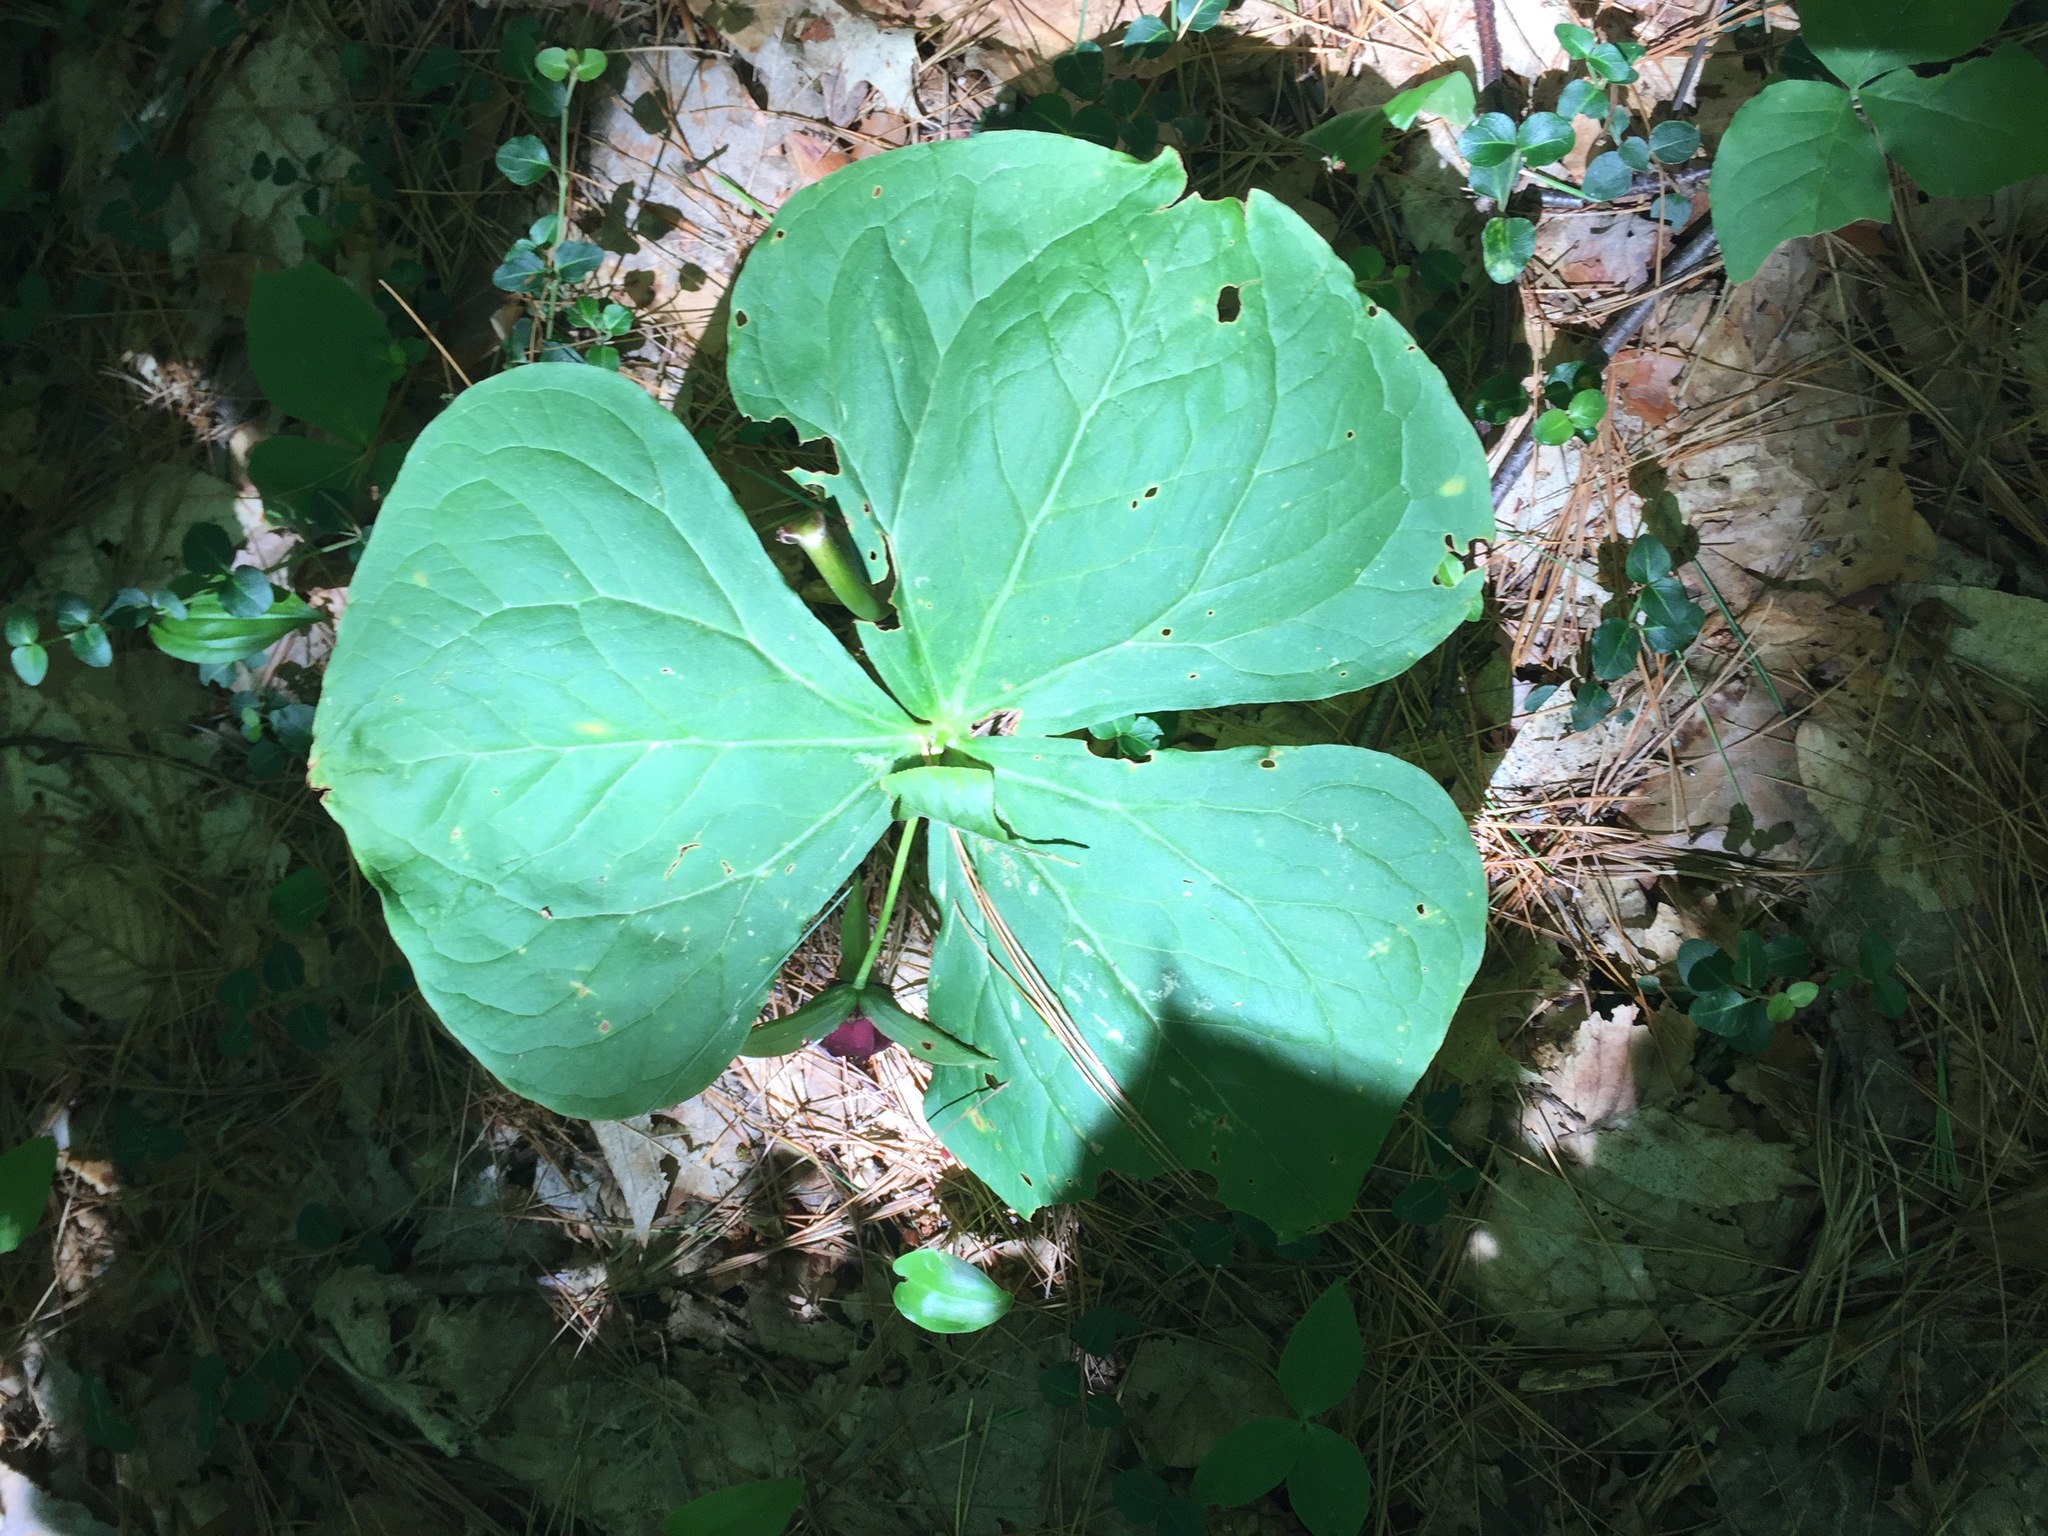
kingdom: Plantae
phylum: Tracheophyta
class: Liliopsida
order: Liliales
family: Melanthiaceae
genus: Trillium
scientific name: Trillium erectum
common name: Purple trillium
